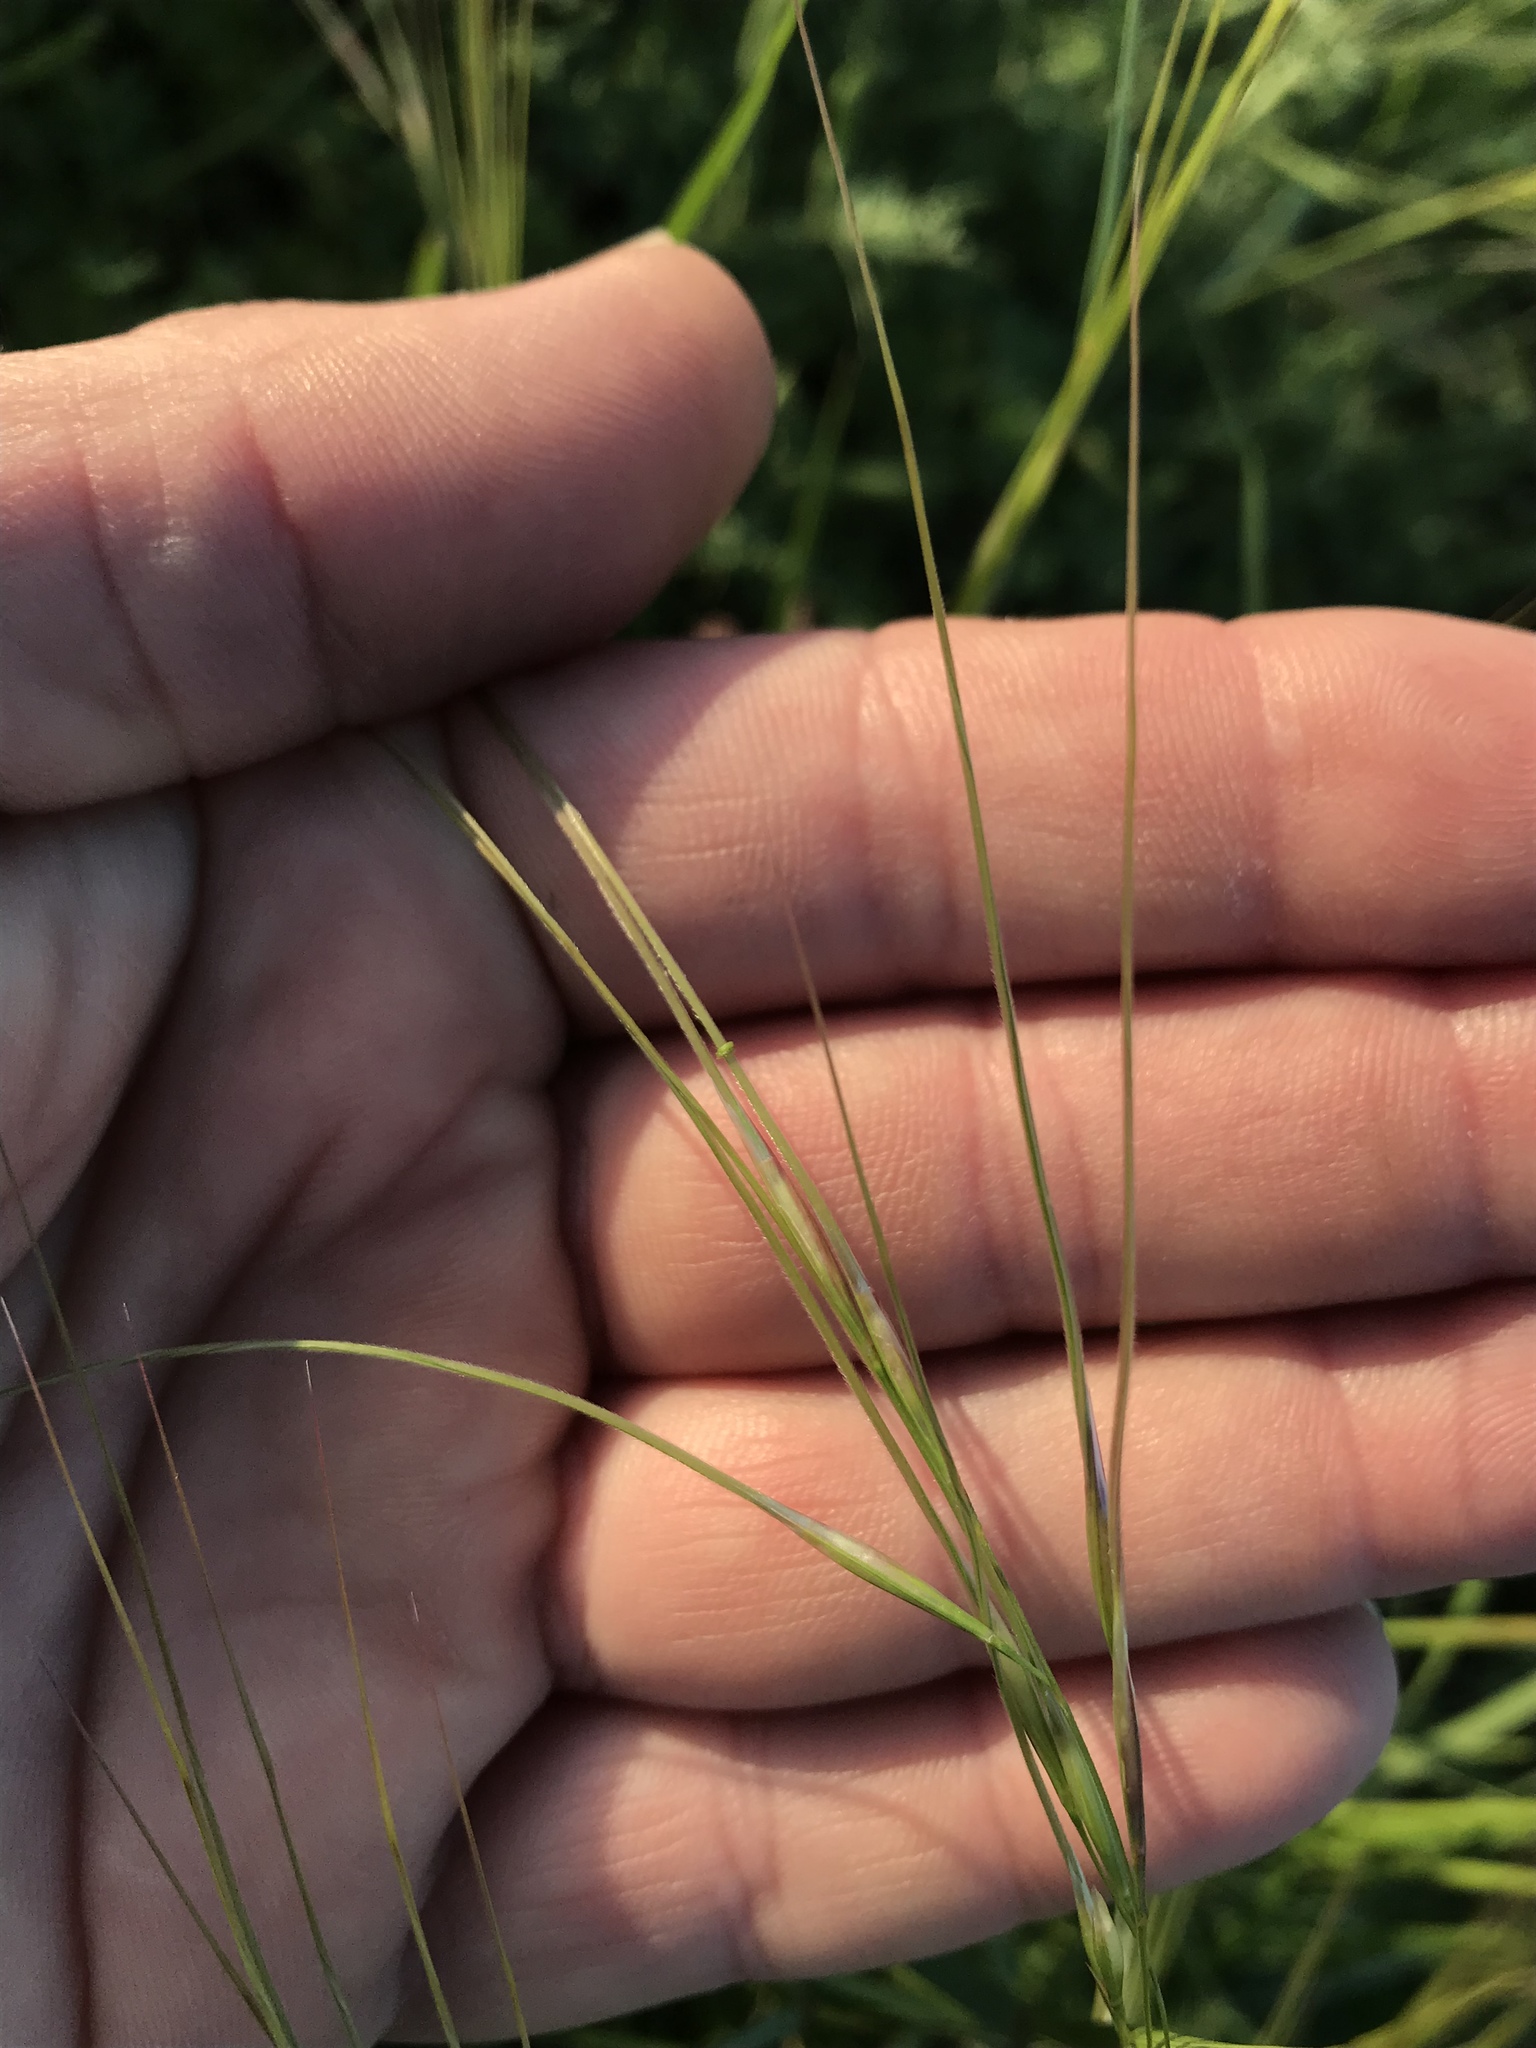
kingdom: Plantae
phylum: Tracheophyta
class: Liliopsida
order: Poales
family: Poaceae
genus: Nassella
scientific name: Nassella leucotricha
